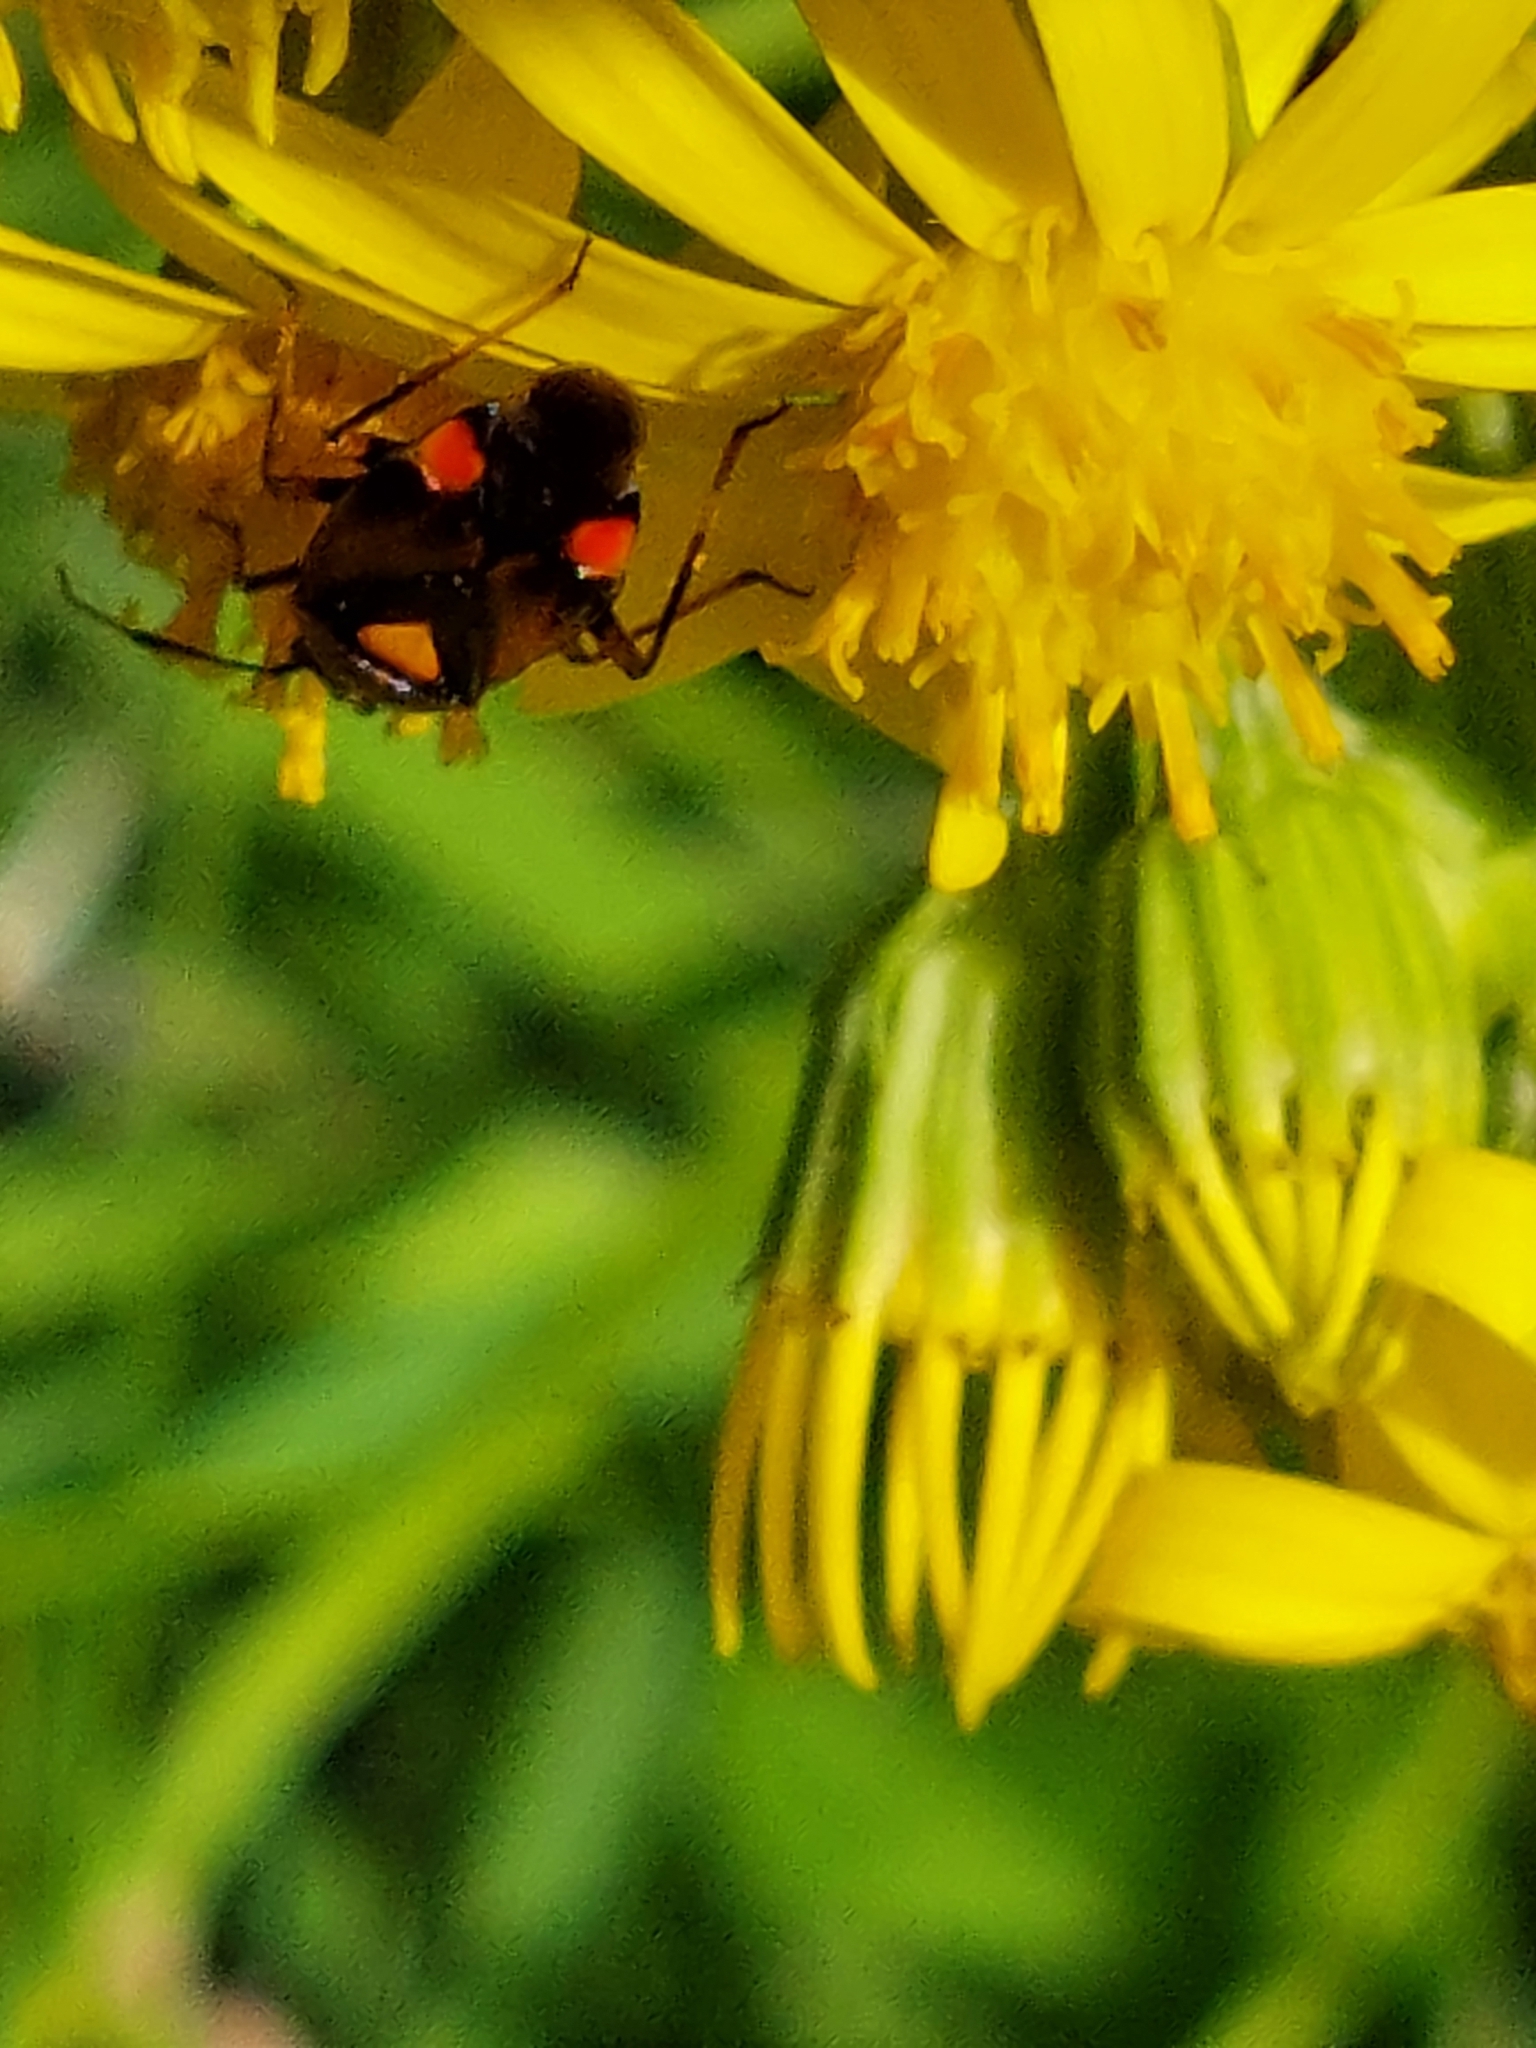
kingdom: Animalia
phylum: Arthropoda
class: Insecta
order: Hemiptera
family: Miridae
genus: Deraeocoris
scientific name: Deraeocoris ruber
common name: Plant bug
